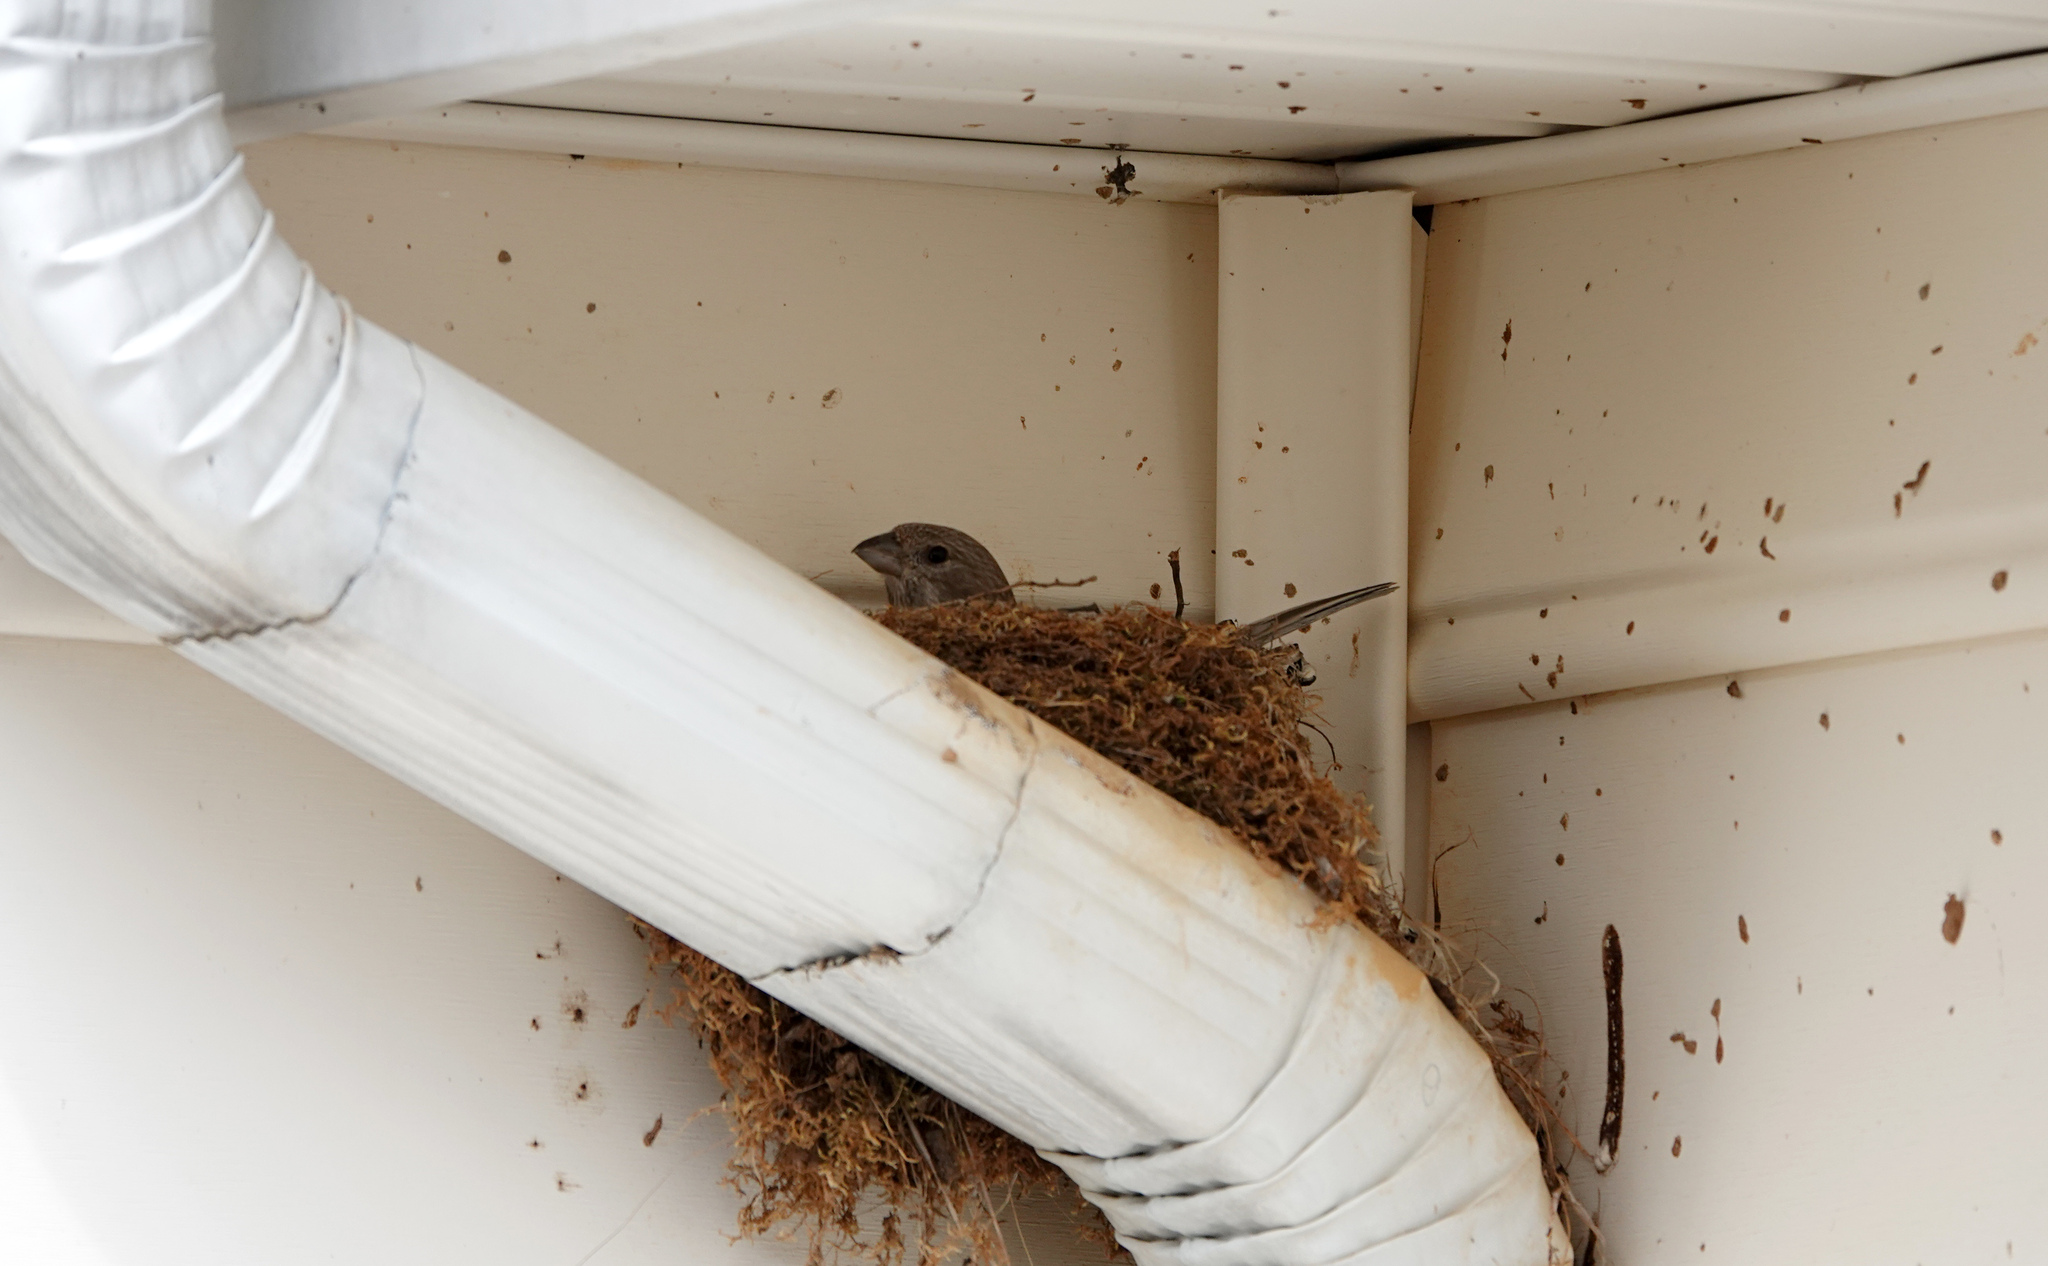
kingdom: Animalia
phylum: Chordata
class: Aves
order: Passeriformes
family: Fringillidae
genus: Haemorhous
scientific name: Haemorhous mexicanus
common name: House finch
